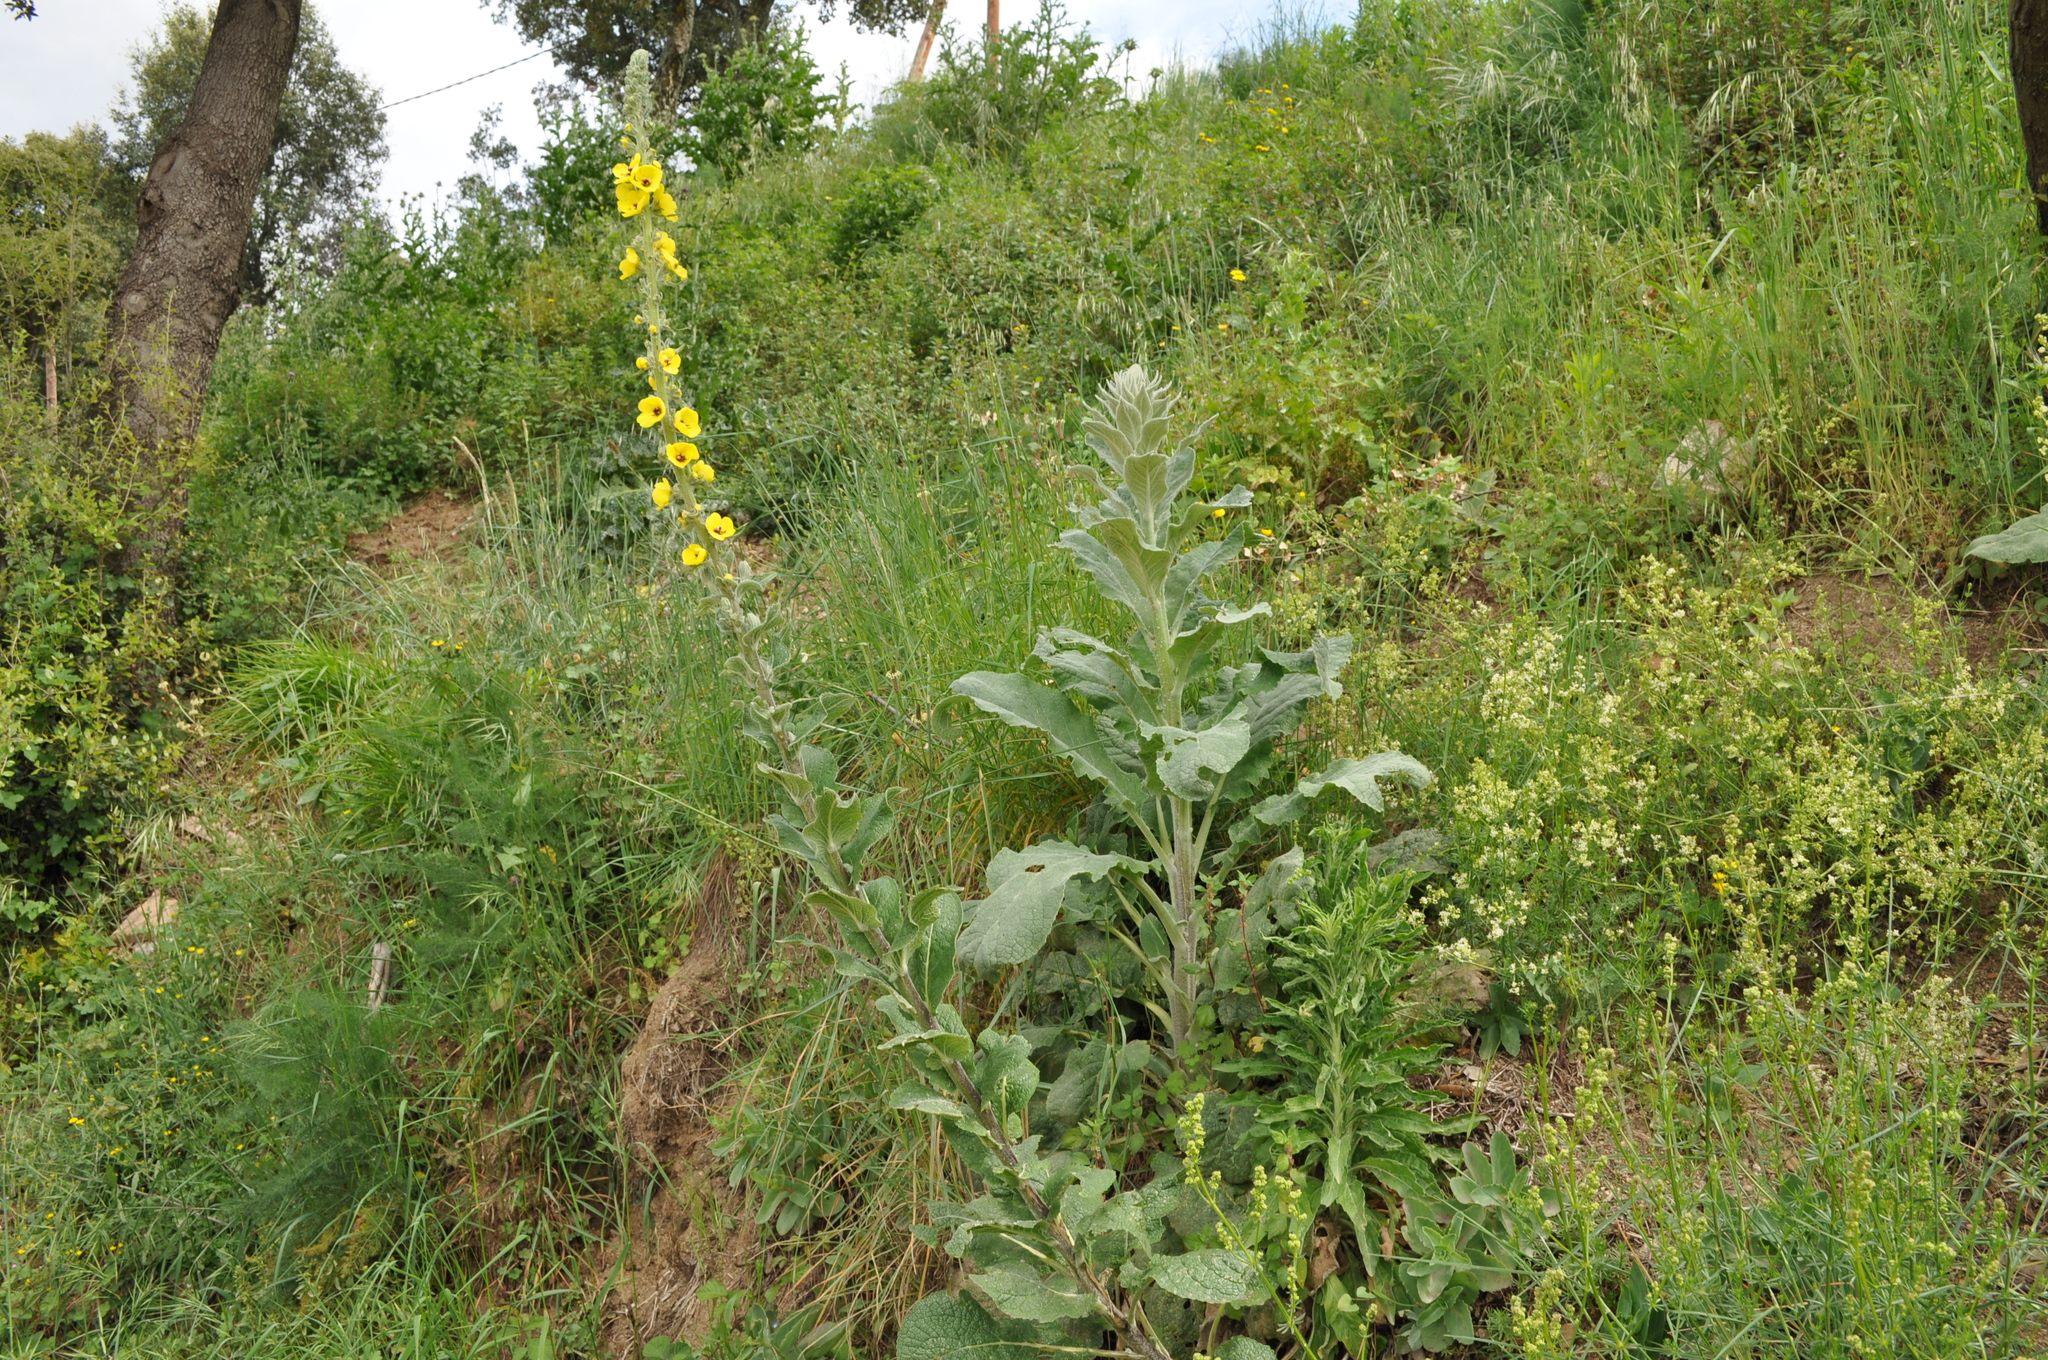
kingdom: Plantae
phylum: Tracheophyta
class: Magnoliopsida
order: Lamiales
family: Scrophulariaceae
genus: Verbascum
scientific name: Verbascum boerhavii
